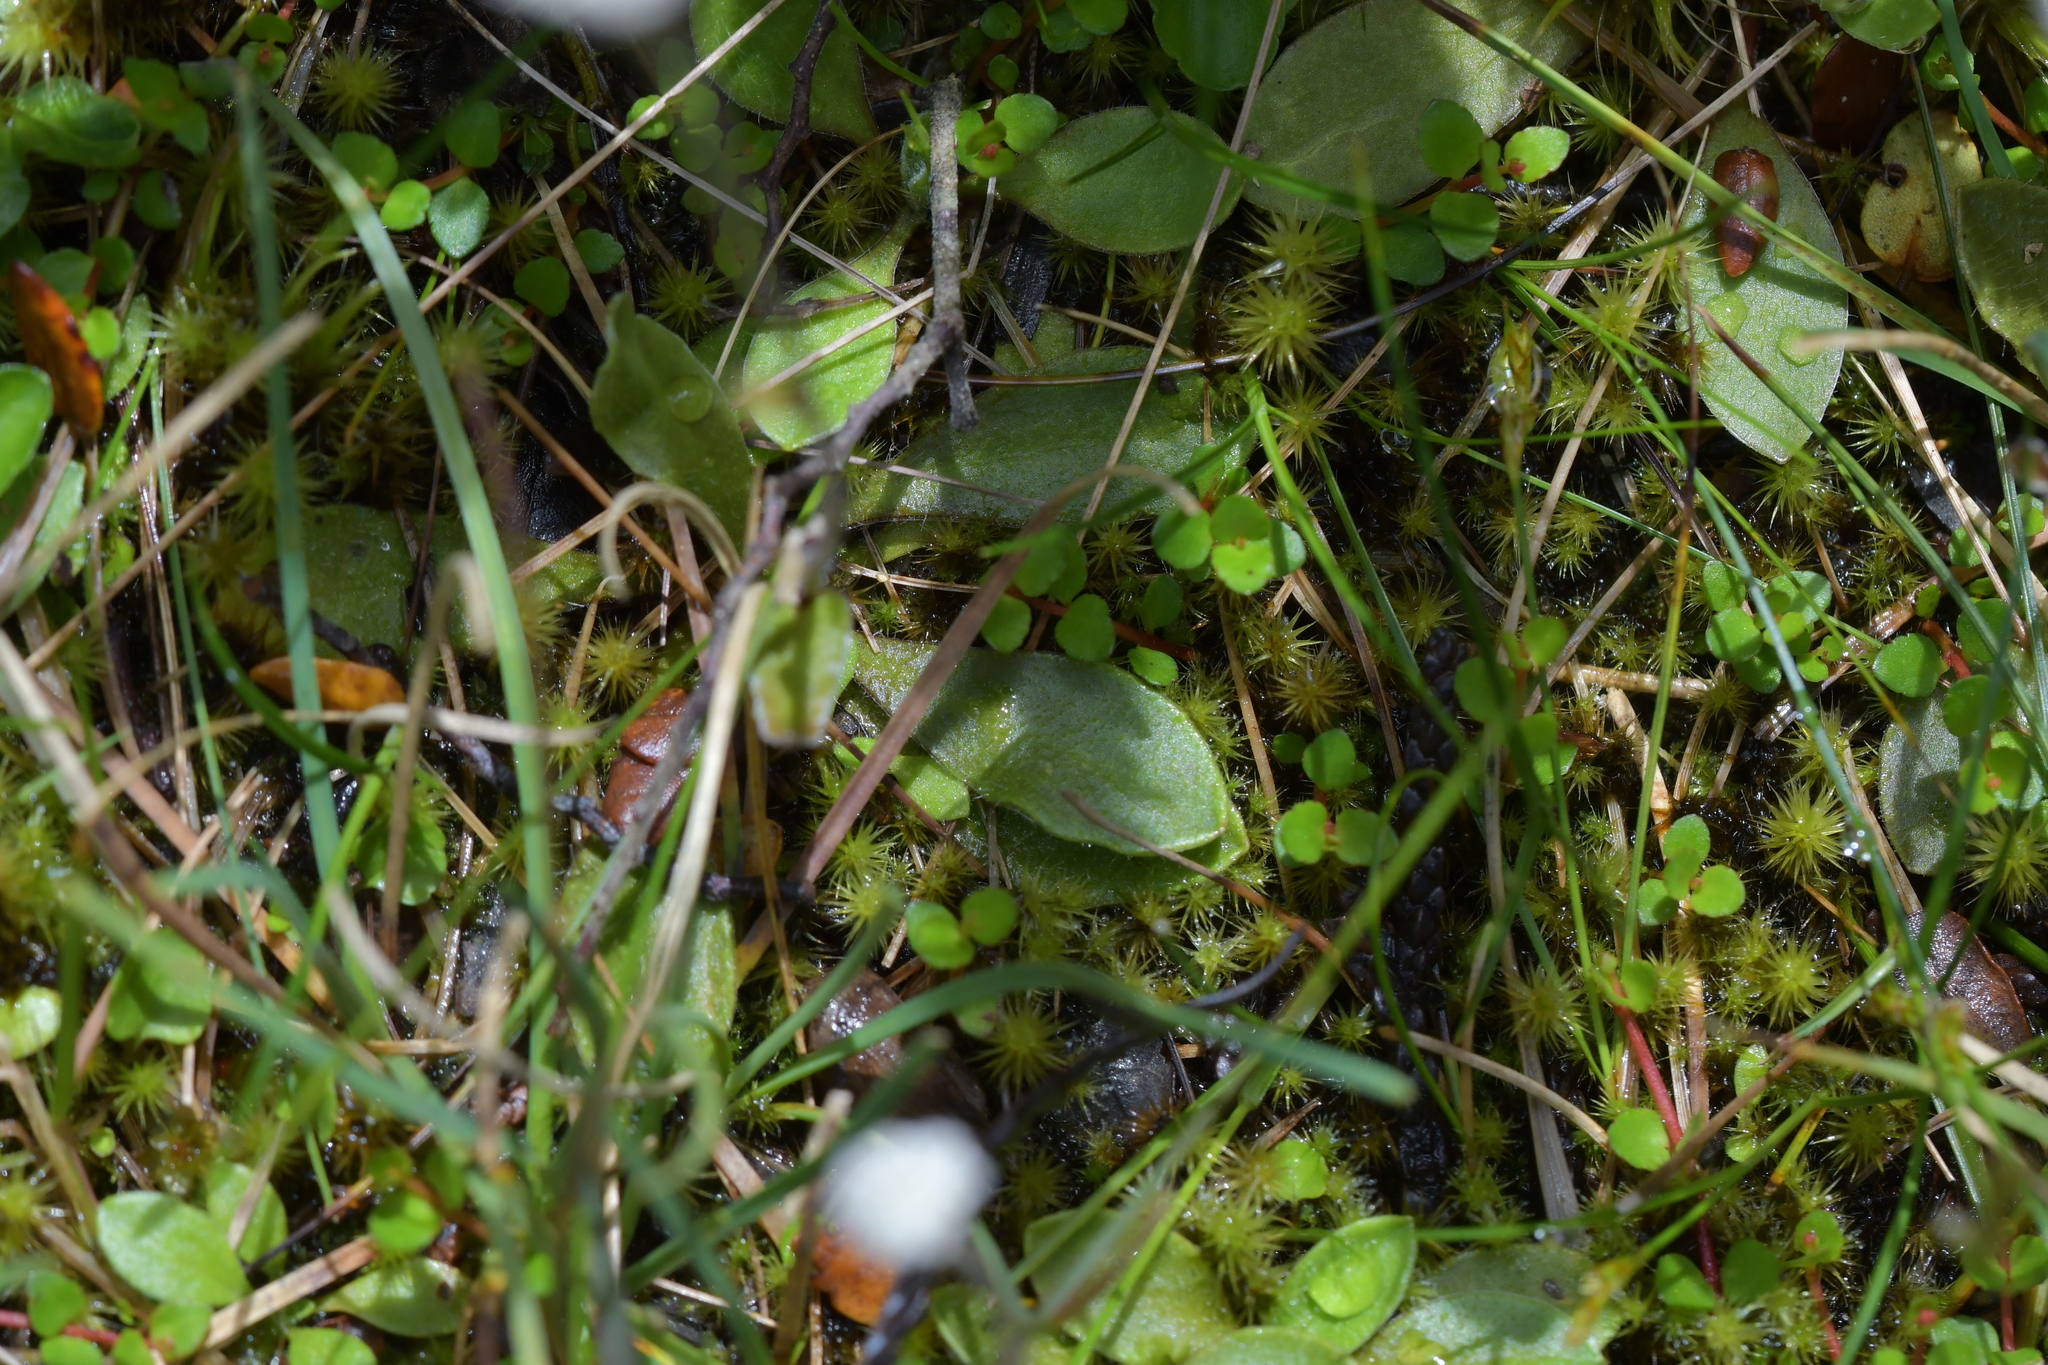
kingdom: Plantae
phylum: Tracheophyta
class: Magnoliopsida
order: Asterales
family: Asteraceae
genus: Craspedia
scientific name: Craspedia uniflora
